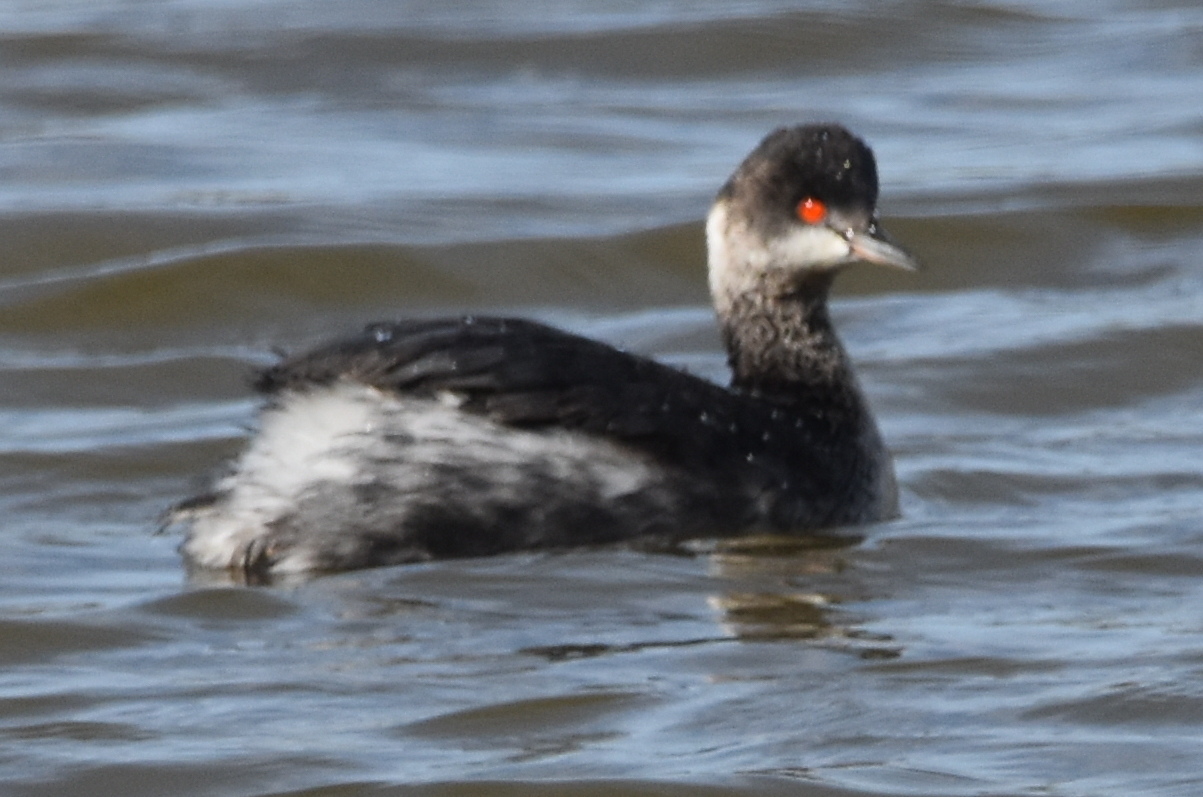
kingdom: Animalia
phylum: Chordata
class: Aves
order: Podicipediformes
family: Podicipedidae
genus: Podiceps
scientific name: Podiceps nigricollis
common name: Black-necked grebe
